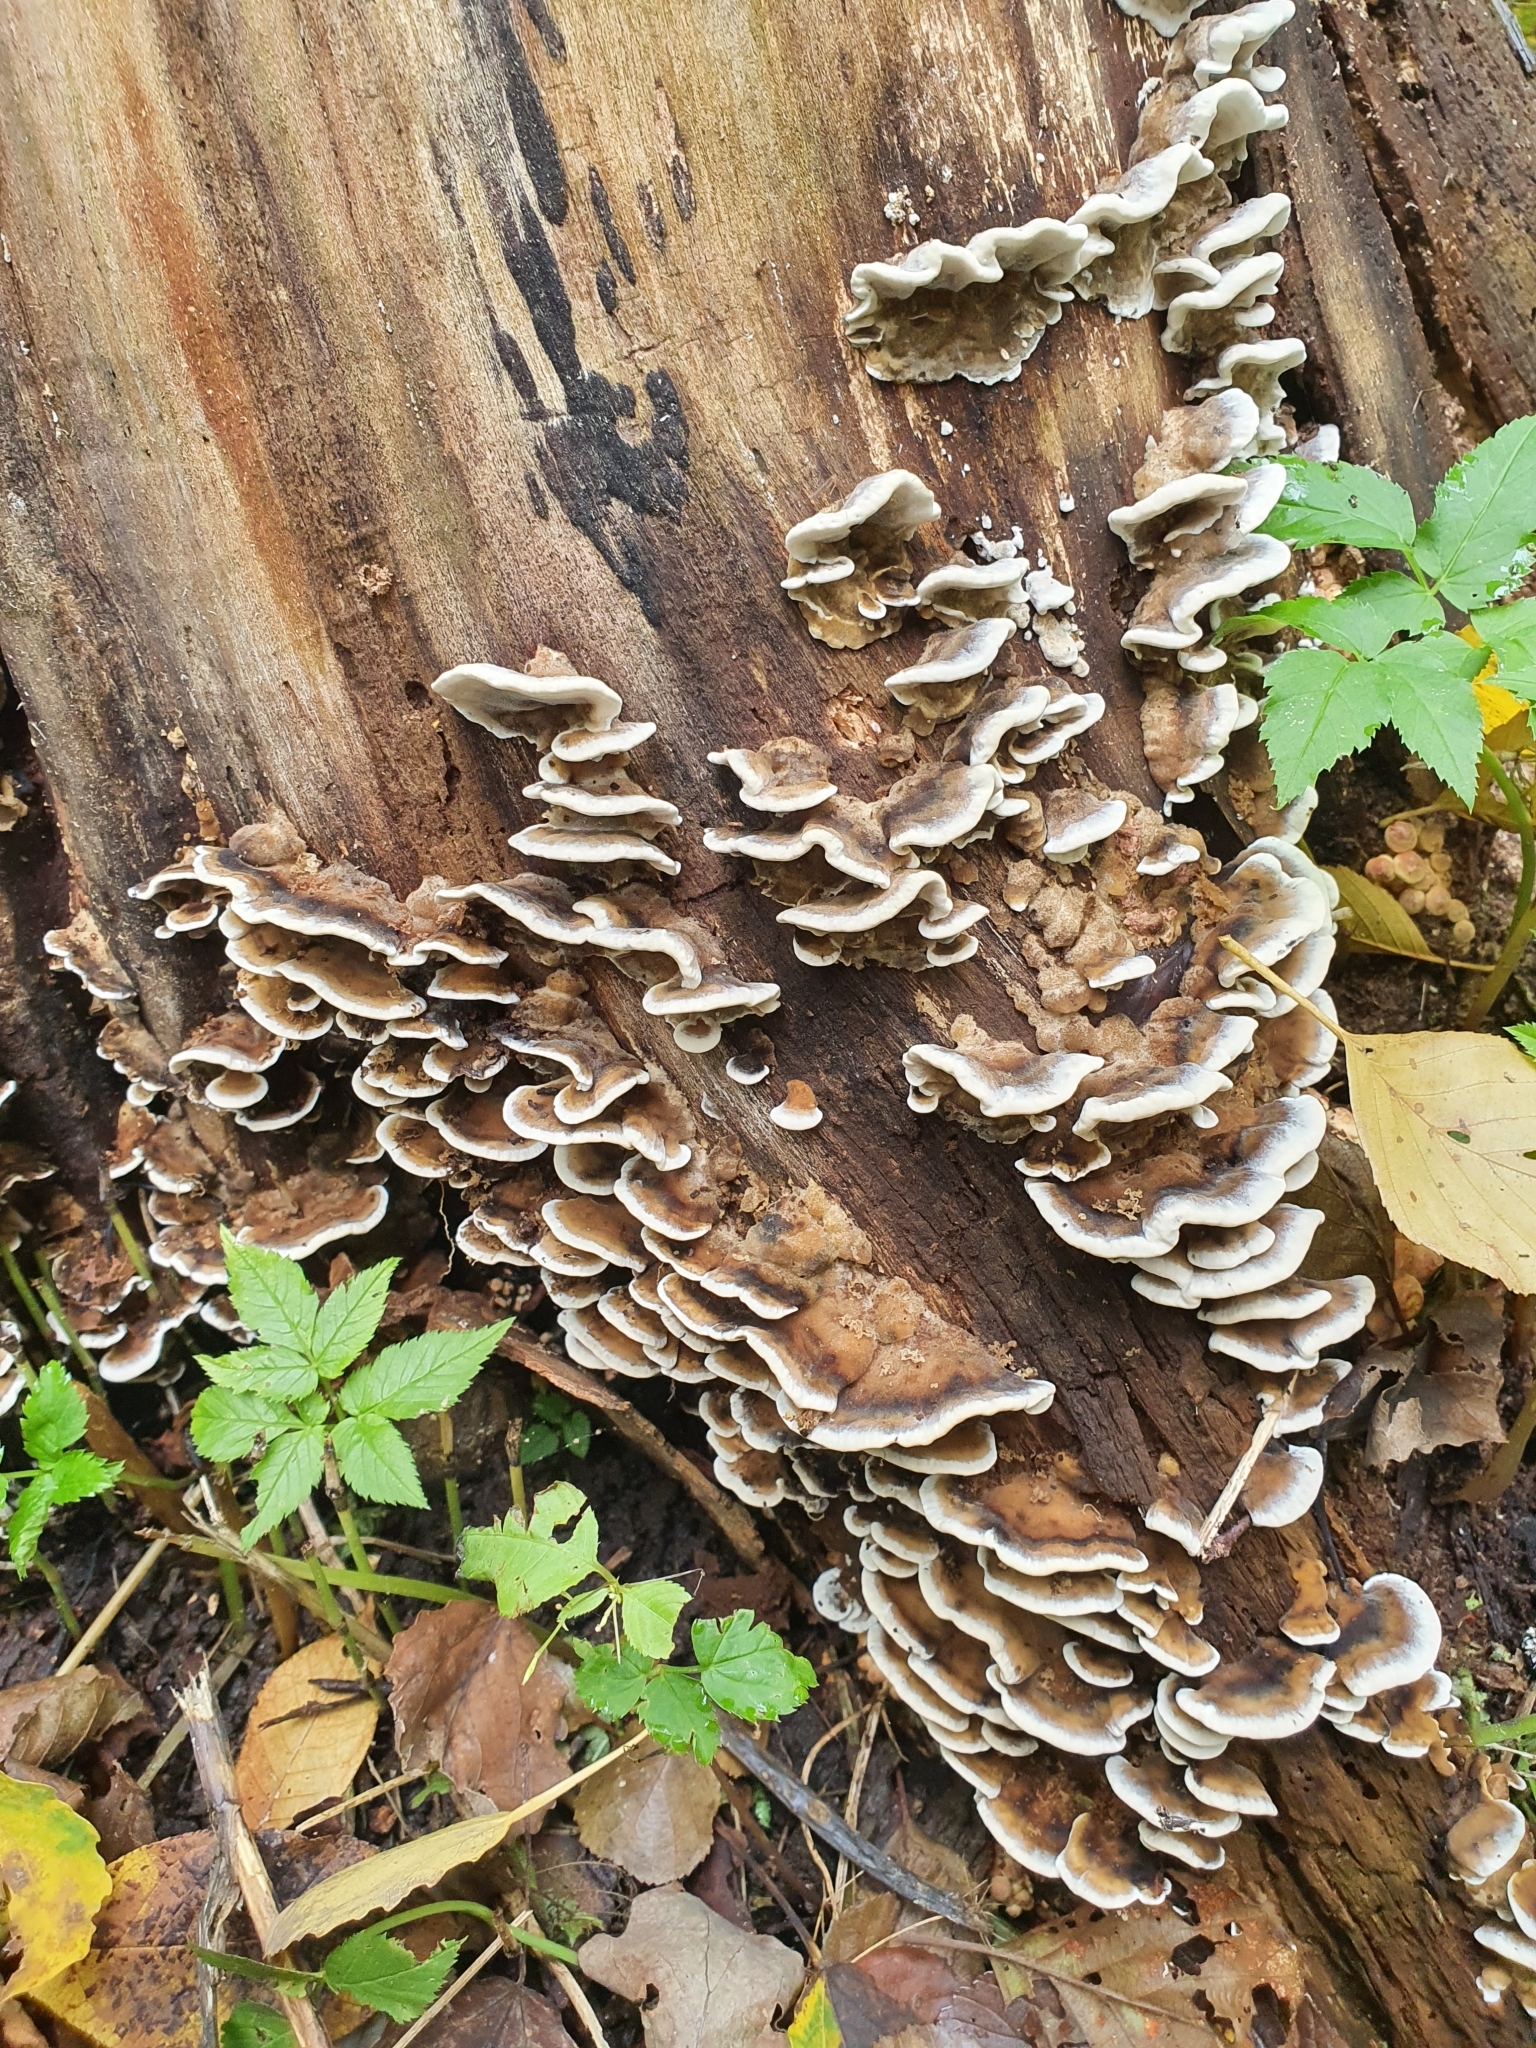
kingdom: Fungi
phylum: Basidiomycota
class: Agaricomycetes
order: Polyporales
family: Phanerochaetaceae
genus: Bjerkandera
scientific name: Bjerkandera adusta
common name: Smoky bracket
